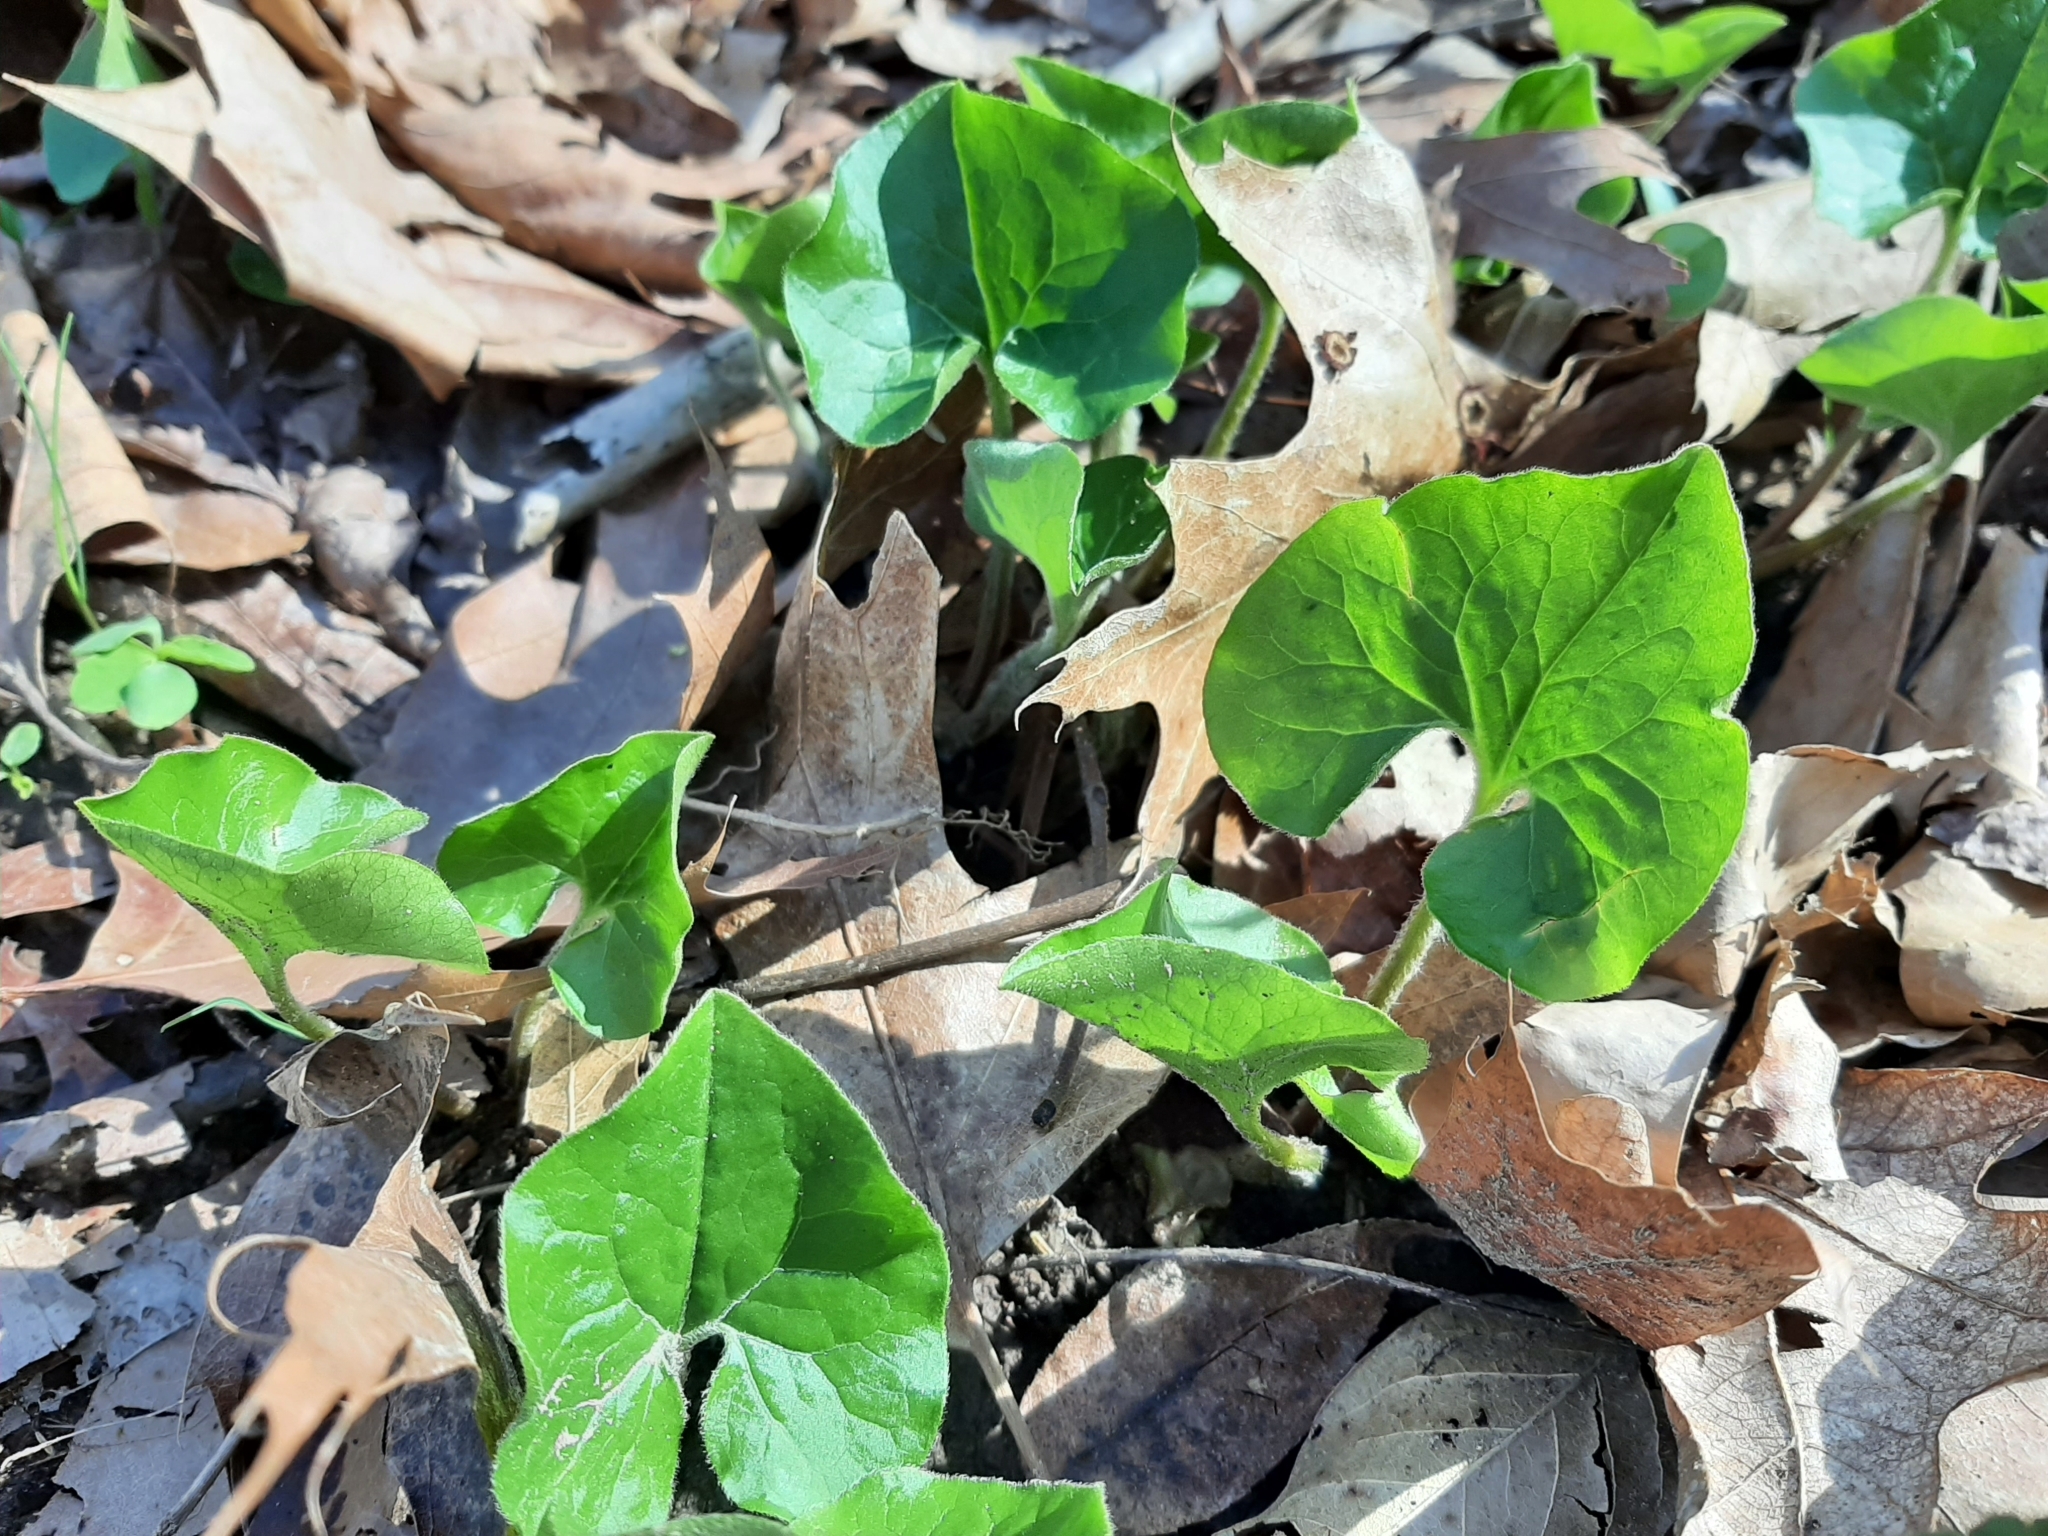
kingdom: Plantae
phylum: Tracheophyta
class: Magnoliopsida
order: Piperales
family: Aristolochiaceae
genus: Asarum
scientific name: Asarum canadense
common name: Wild ginger
